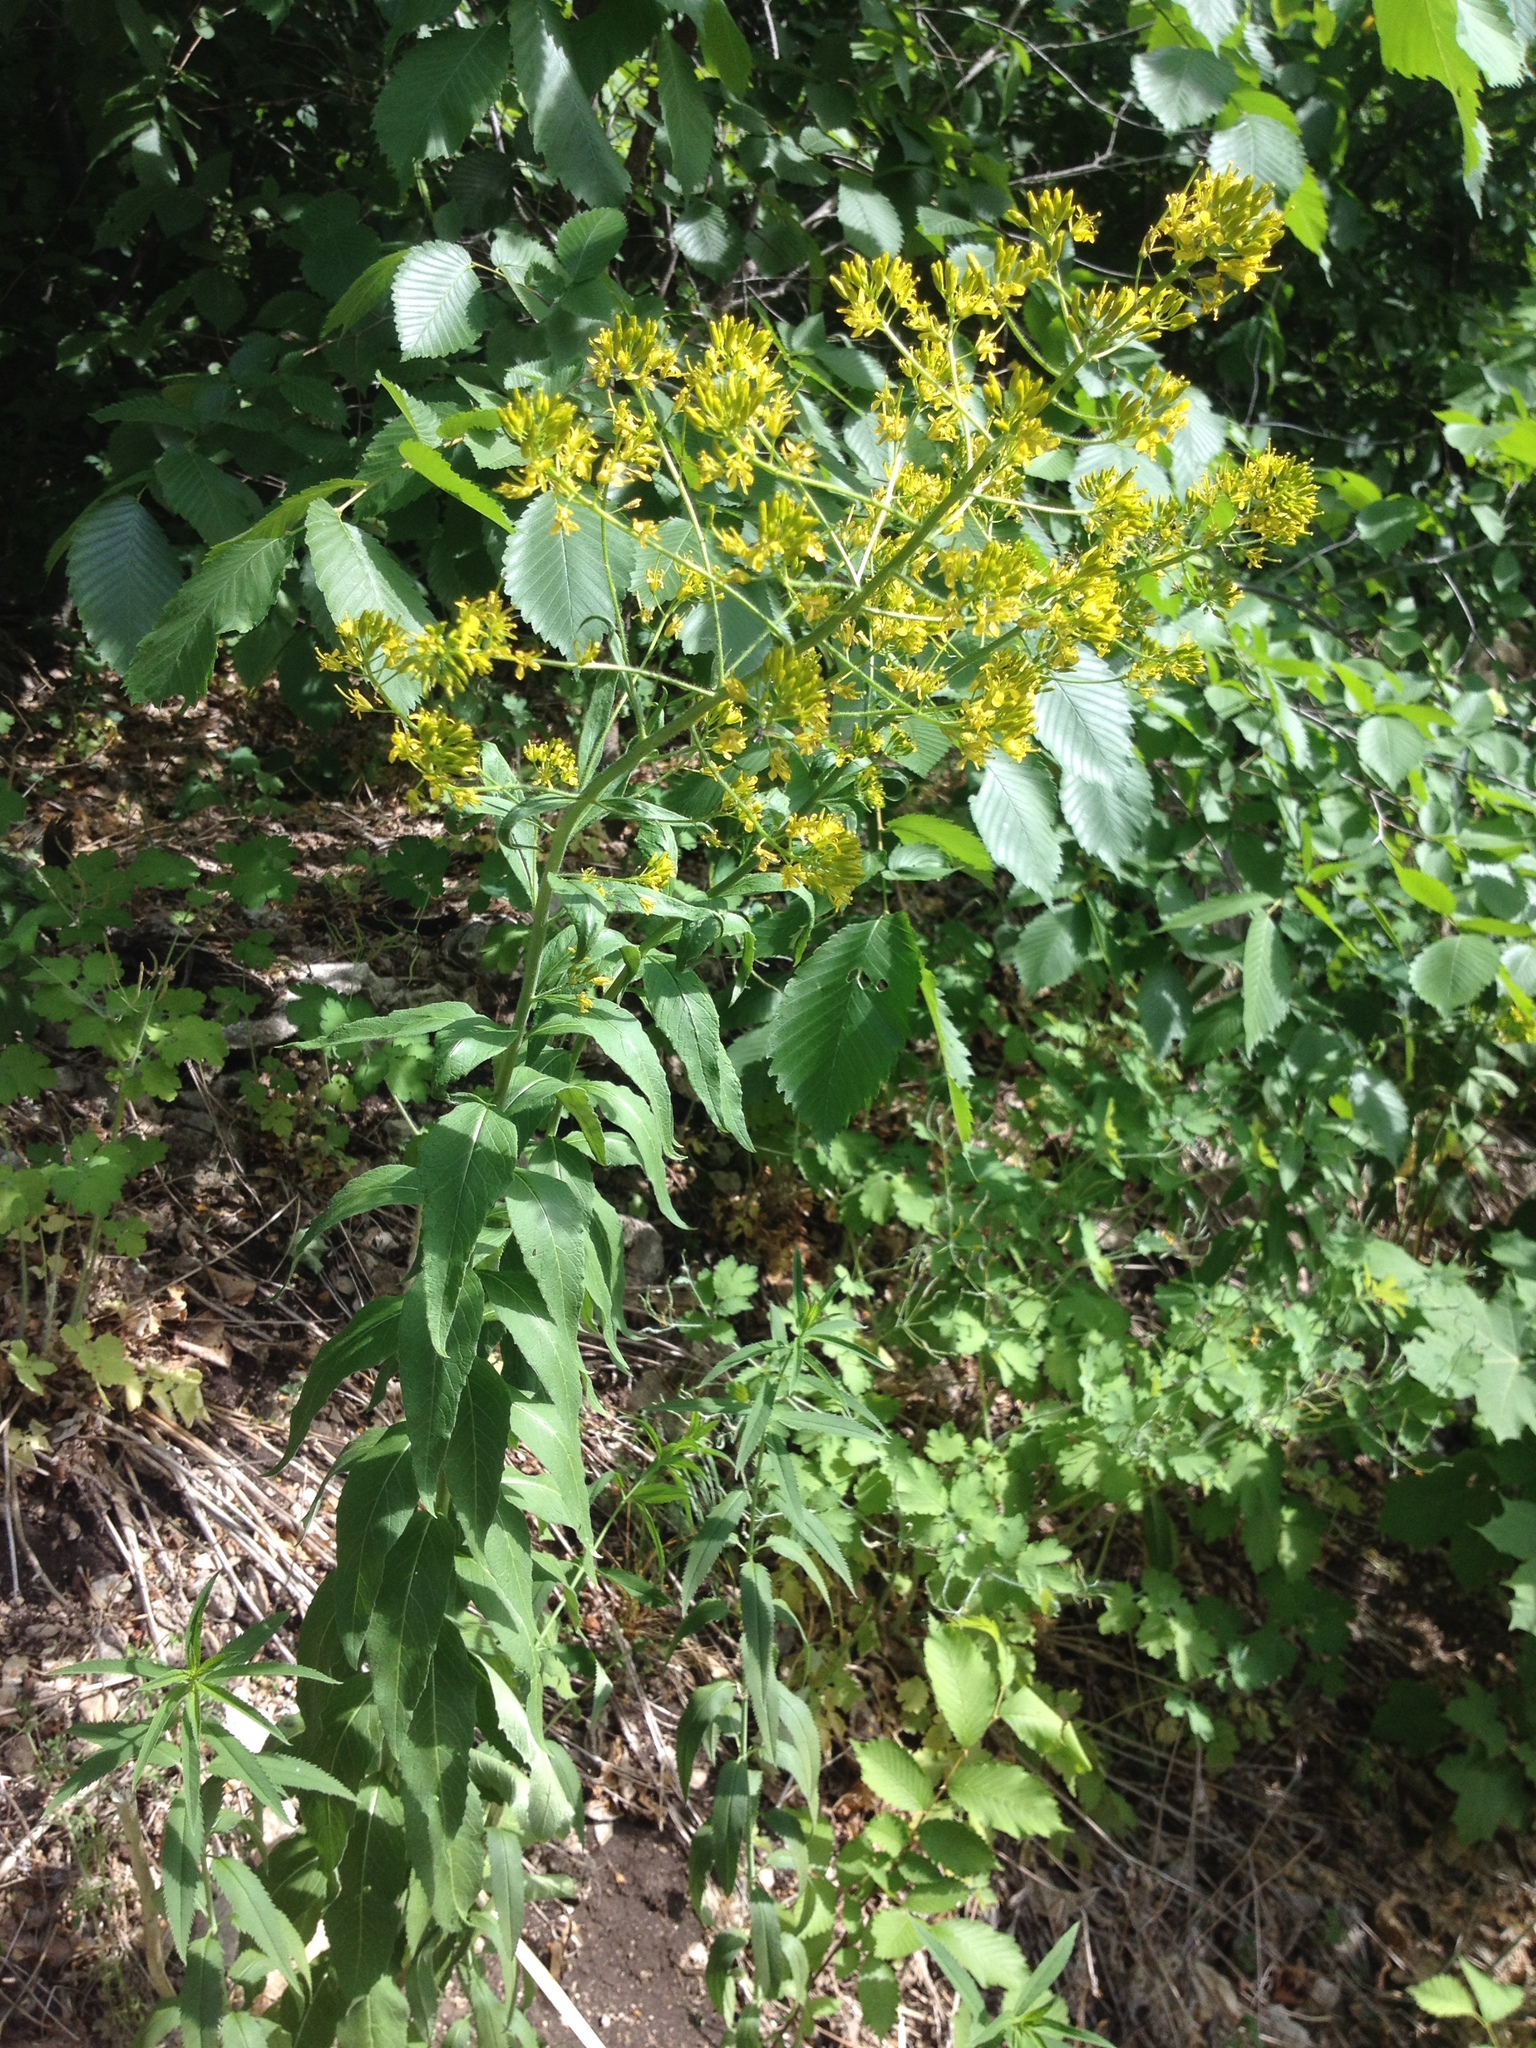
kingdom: Plantae
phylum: Tracheophyta
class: Magnoliopsida
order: Brassicales
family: Brassicaceae
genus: Sisymbrium
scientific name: Sisymbrium strictissimum
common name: Perennial rocket
